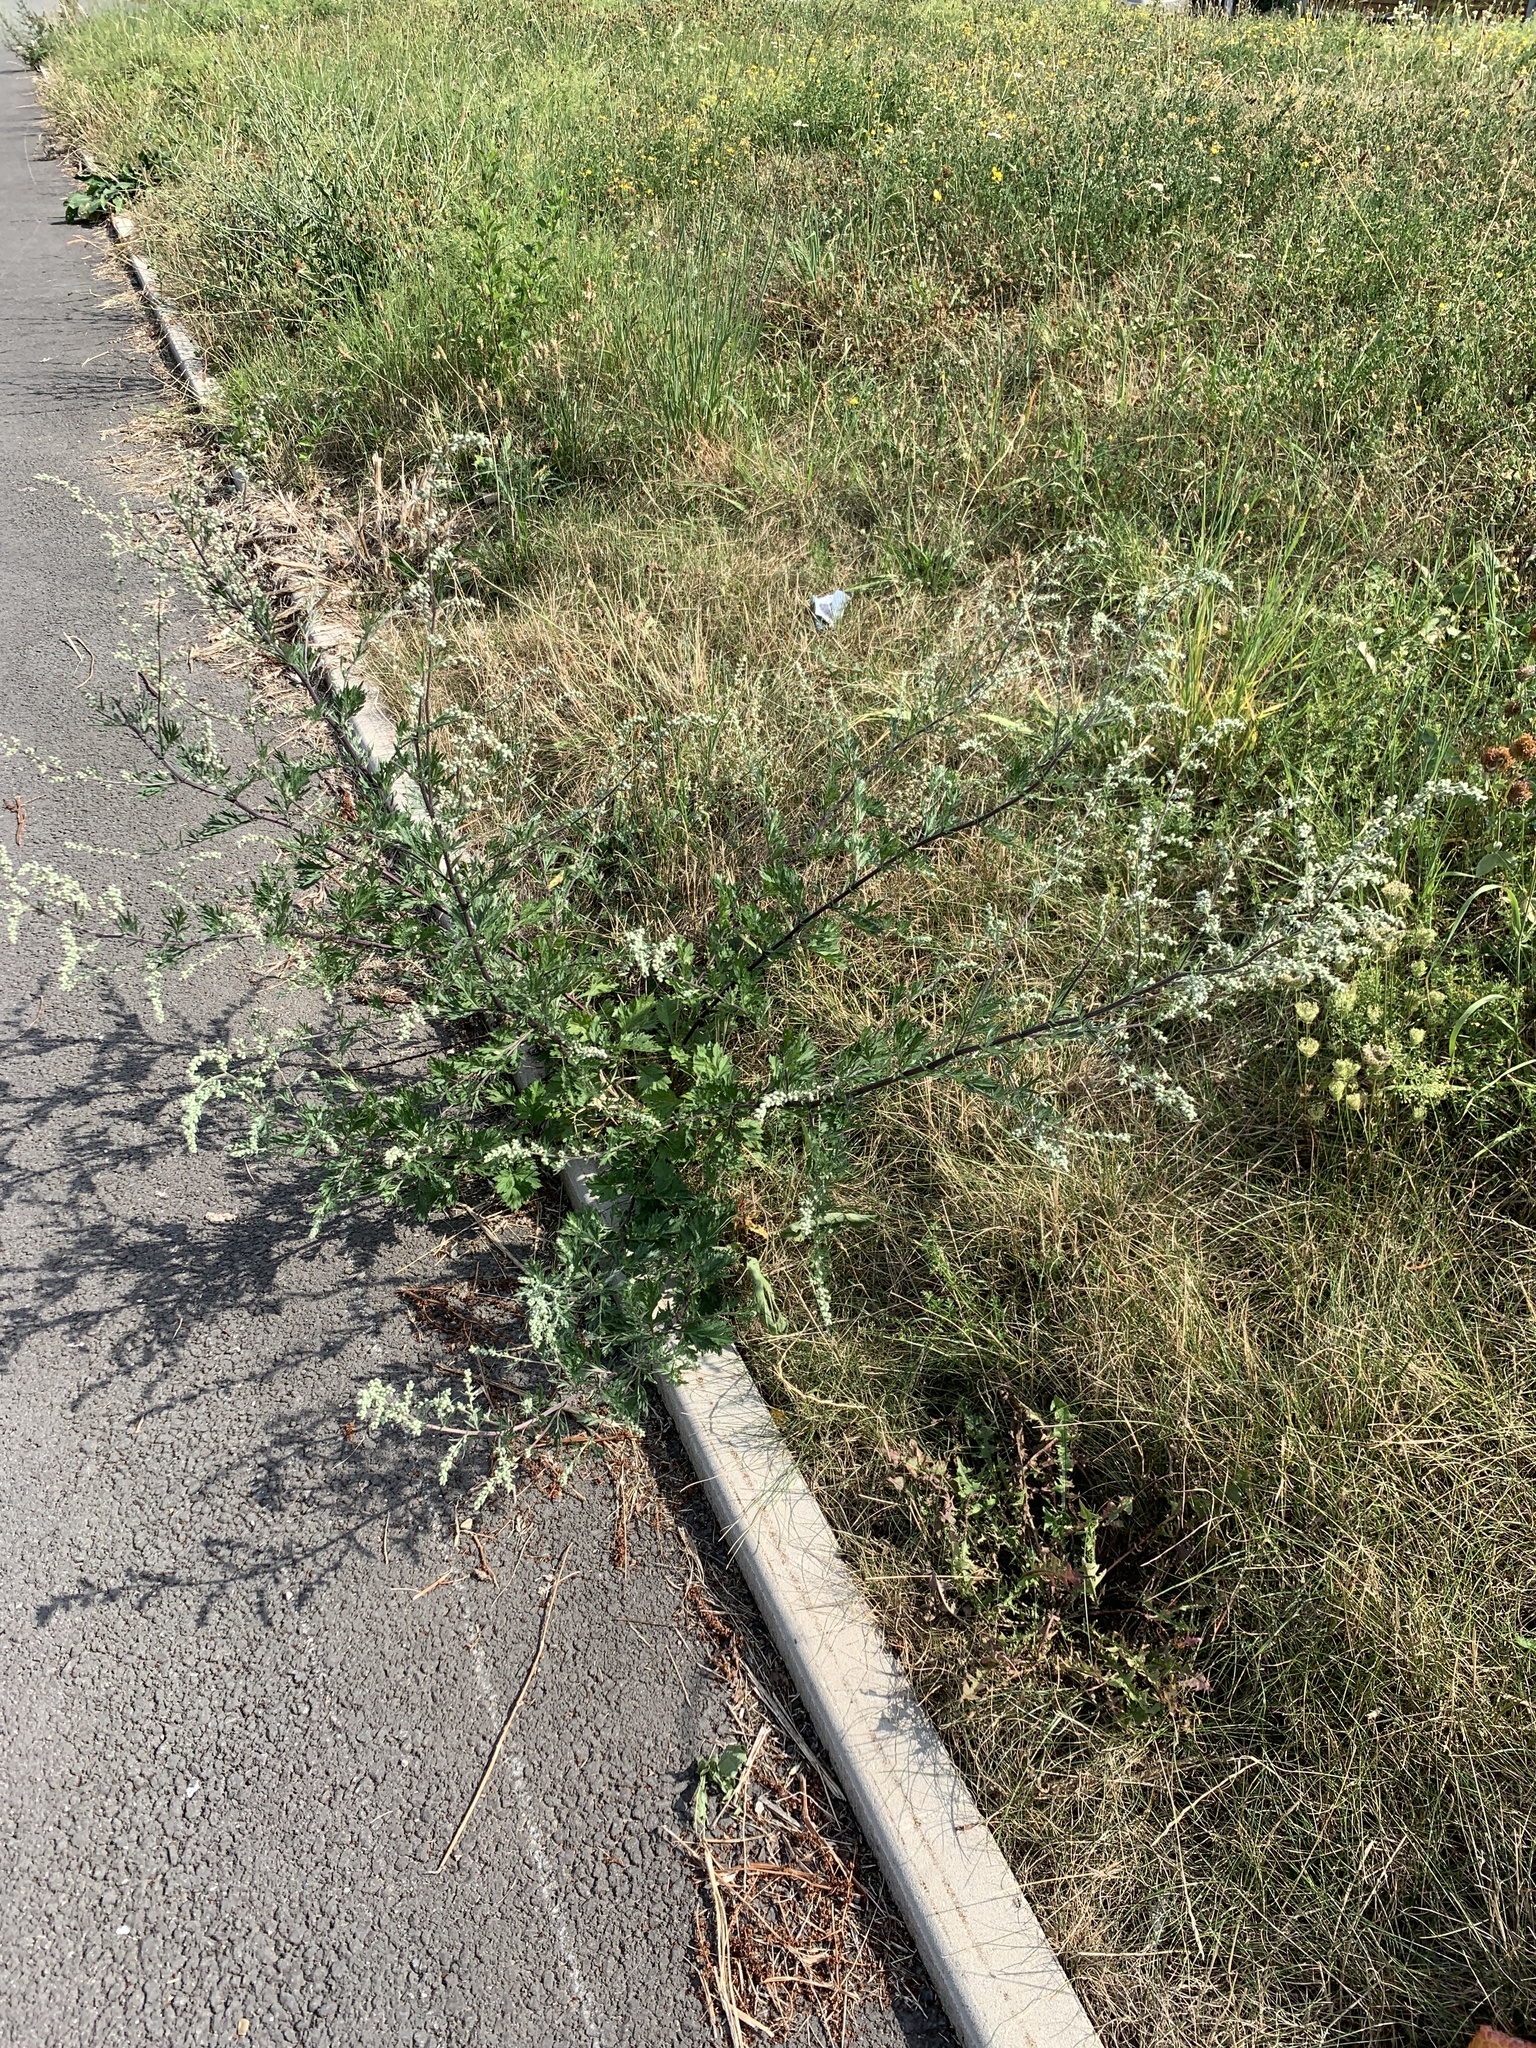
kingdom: Plantae
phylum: Tracheophyta
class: Magnoliopsida
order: Asterales
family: Asteraceae
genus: Arctium
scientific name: Arctium tomentosum
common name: Woolly burdock
